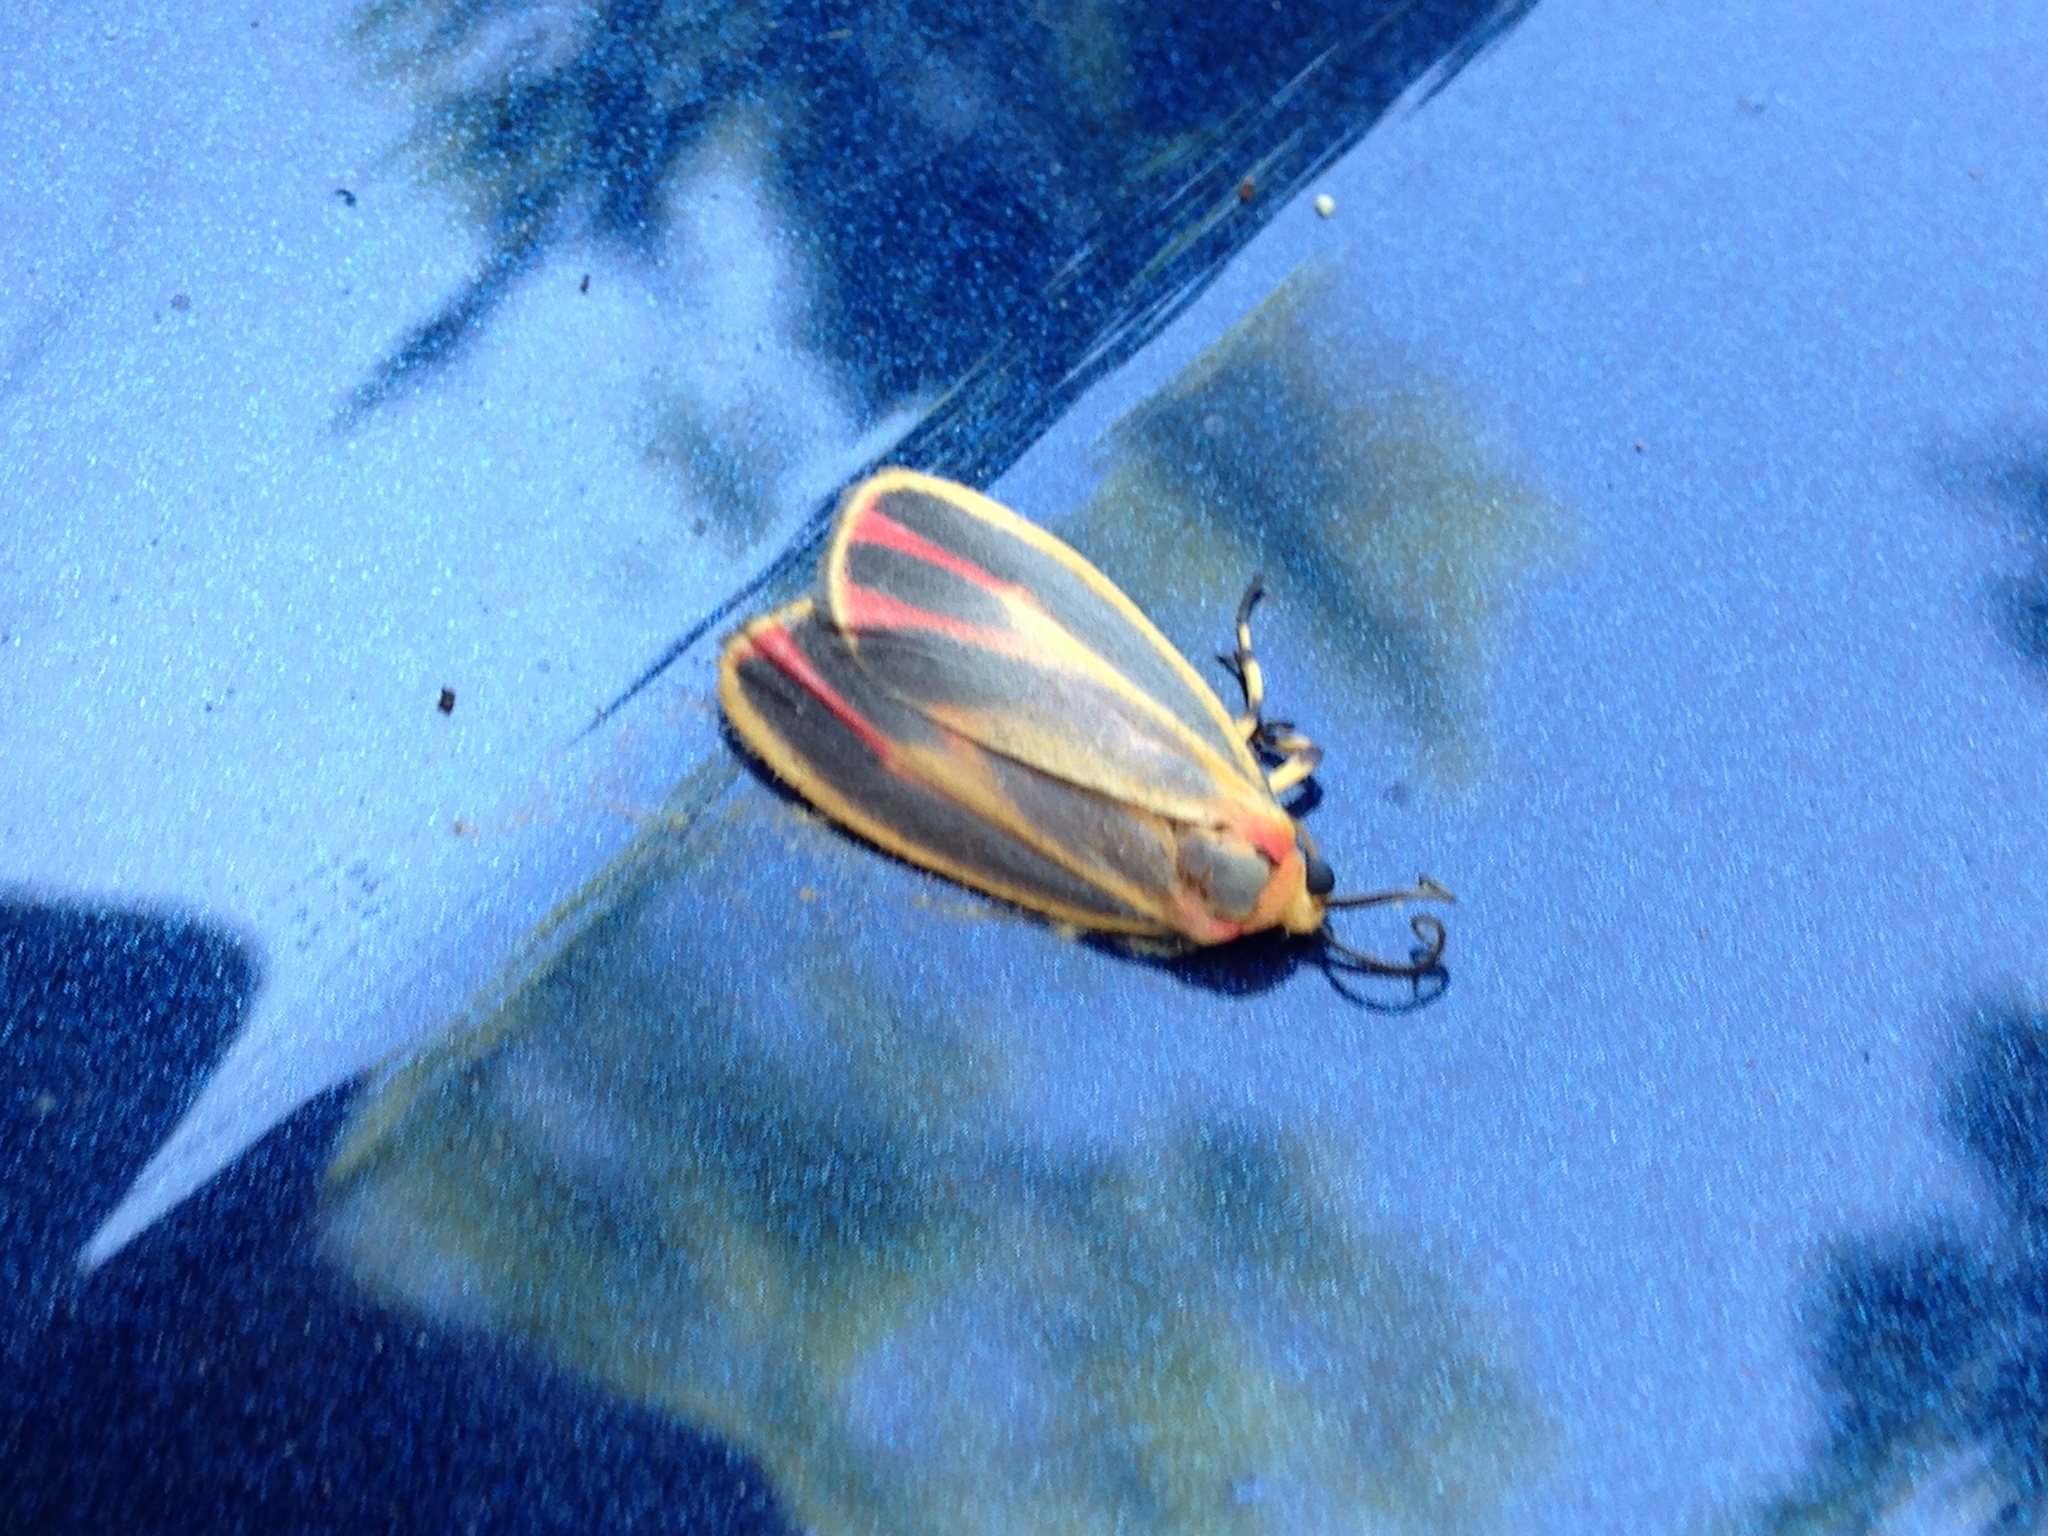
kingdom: Animalia
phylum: Arthropoda
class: Insecta
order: Lepidoptera
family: Erebidae
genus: Hypoprepia
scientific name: Hypoprepia fucosa
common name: Painted lichen moth
